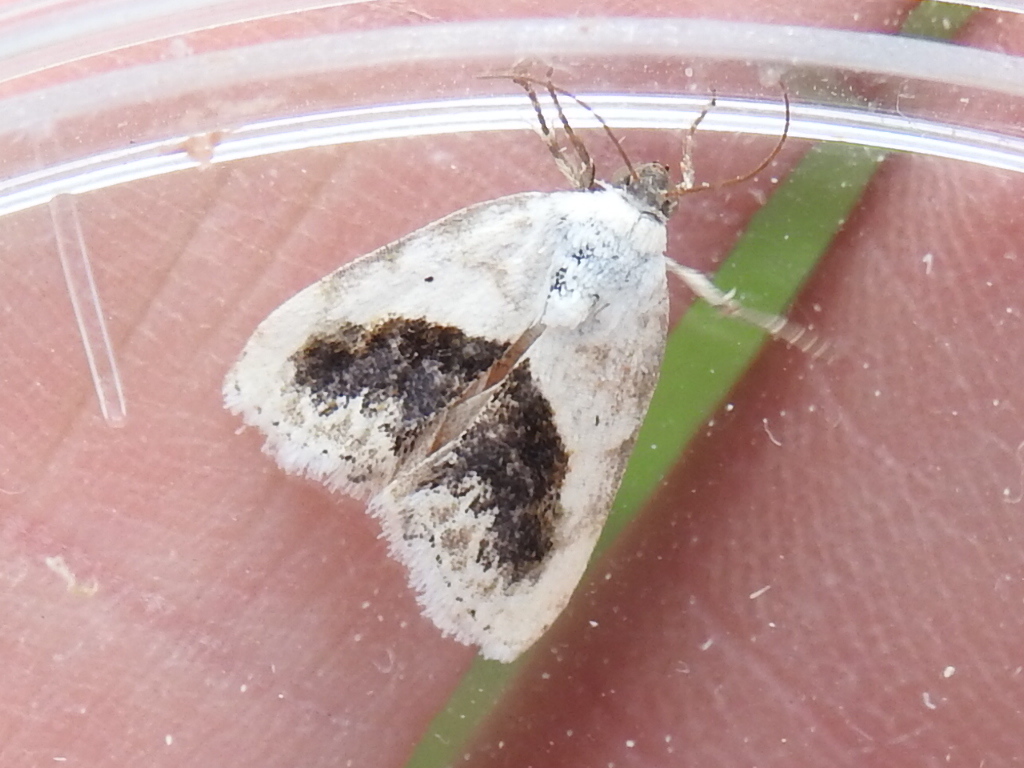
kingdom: Animalia
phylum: Arthropoda
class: Insecta
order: Lepidoptera
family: Noctuidae
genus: Acontia
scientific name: Acontia erastrioides
